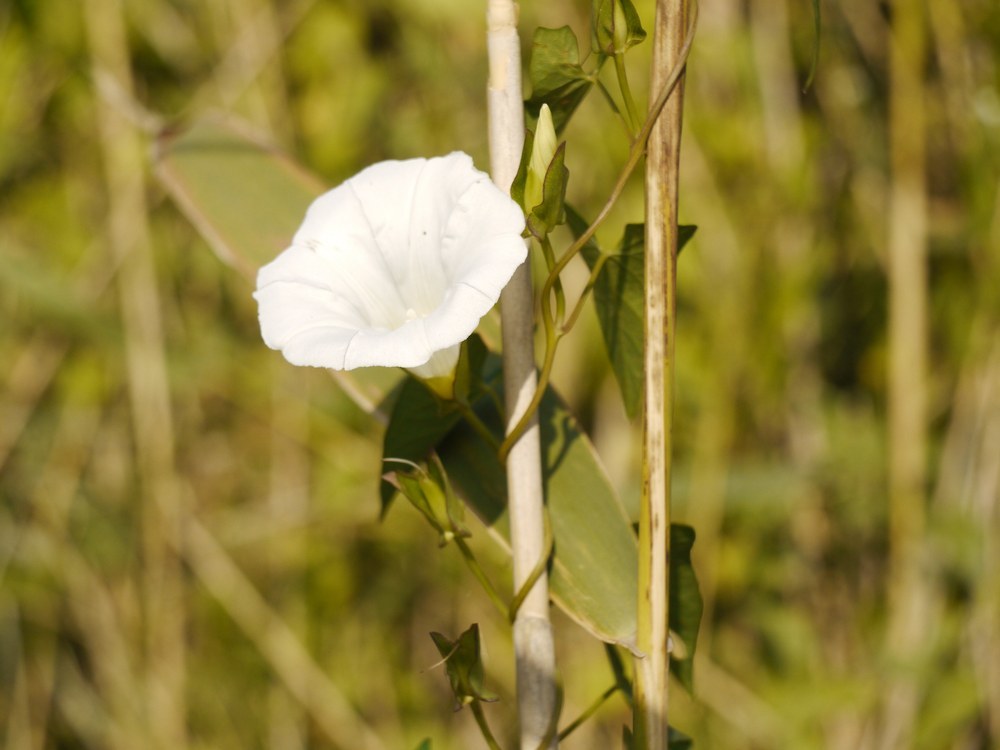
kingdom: Plantae
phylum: Tracheophyta
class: Magnoliopsida
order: Solanales
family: Convolvulaceae
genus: Calystegia
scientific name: Calystegia sepium
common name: Hedge bindweed
